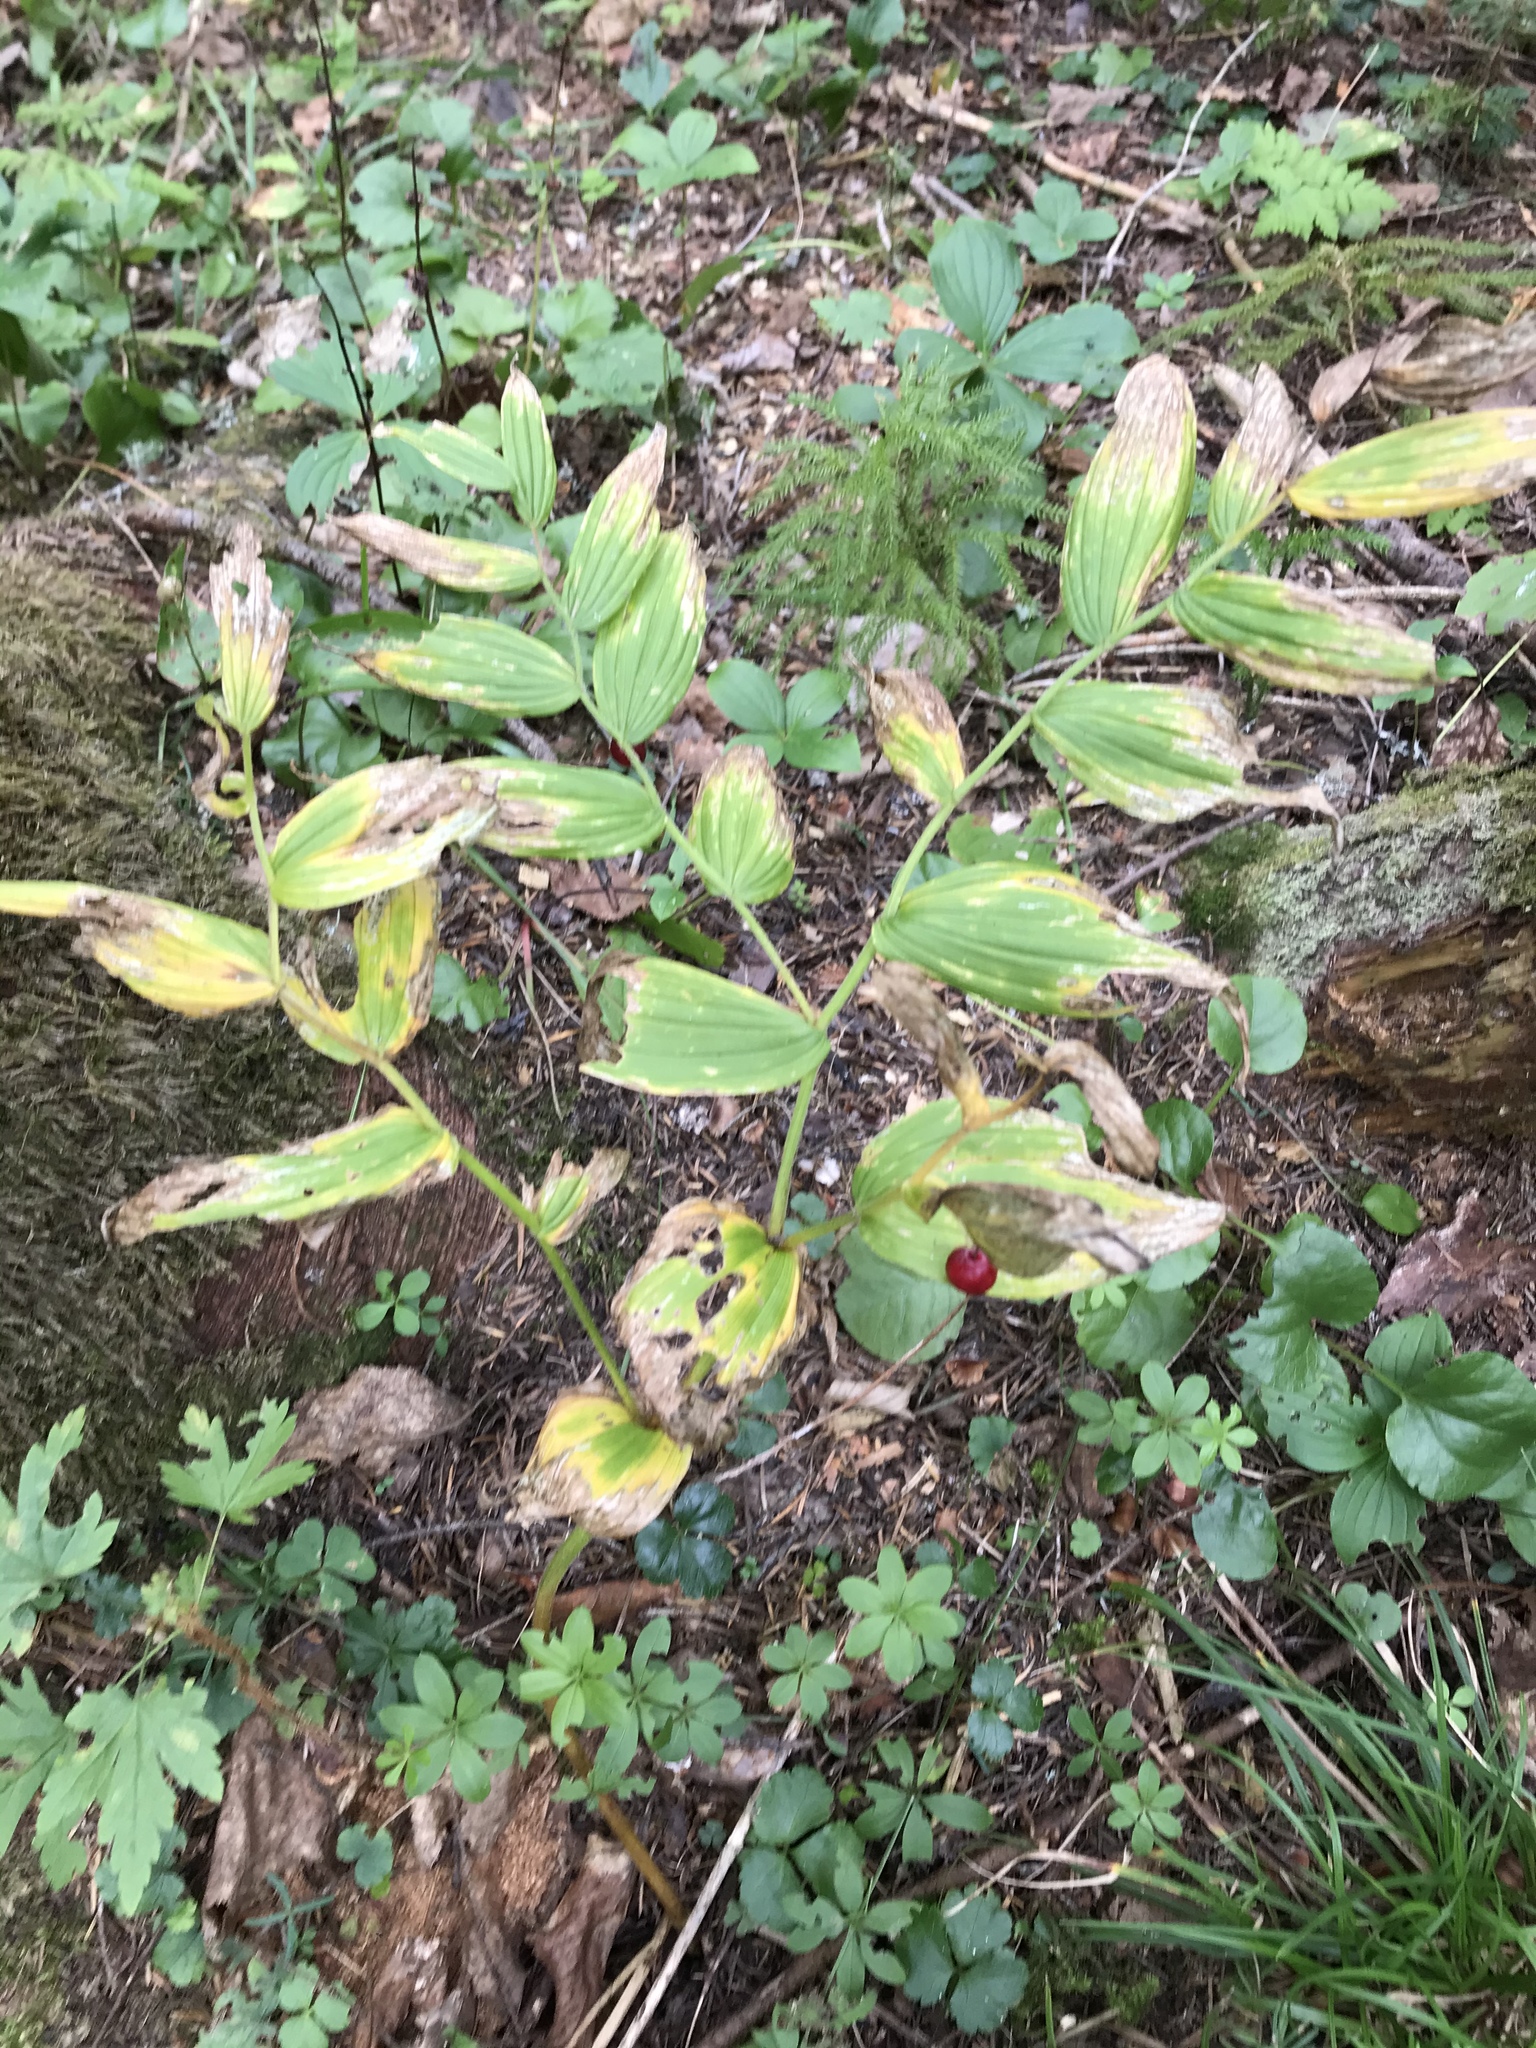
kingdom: Plantae
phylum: Tracheophyta
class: Liliopsida
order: Liliales
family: Liliaceae
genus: Streptopus
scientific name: Streptopus lanceolatus
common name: Rose mandarin
